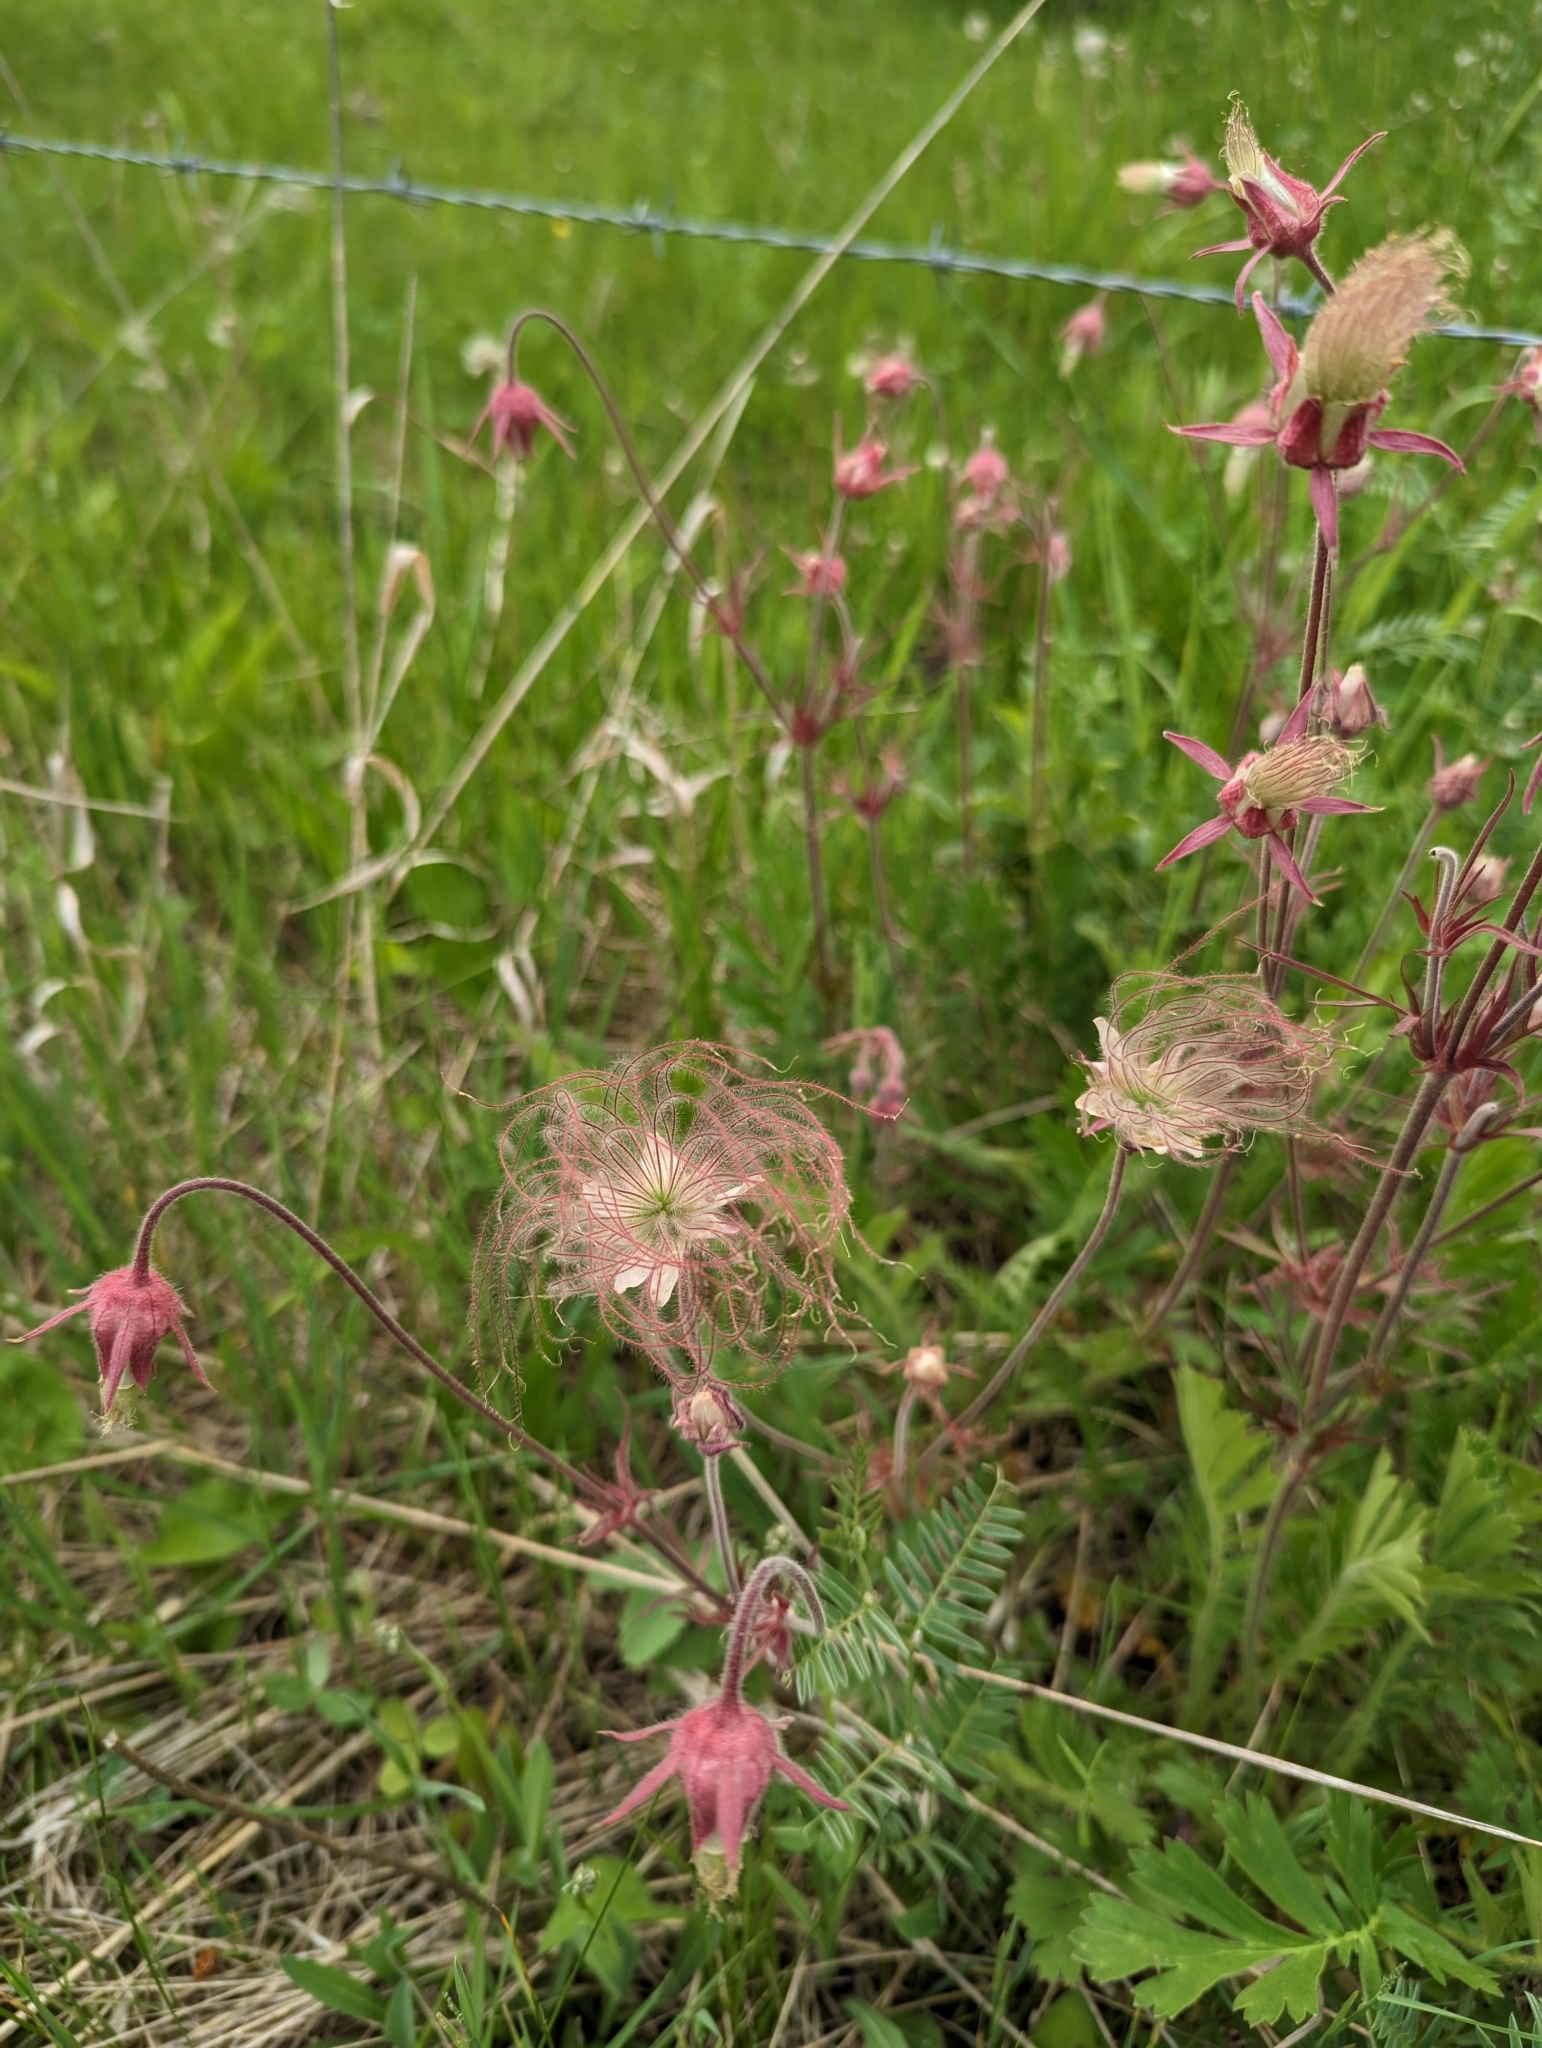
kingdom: Plantae
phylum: Tracheophyta
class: Magnoliopsida
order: Rosales
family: Rosaceae
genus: Geum
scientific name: Geum triflorum
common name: Old man's whiskers
